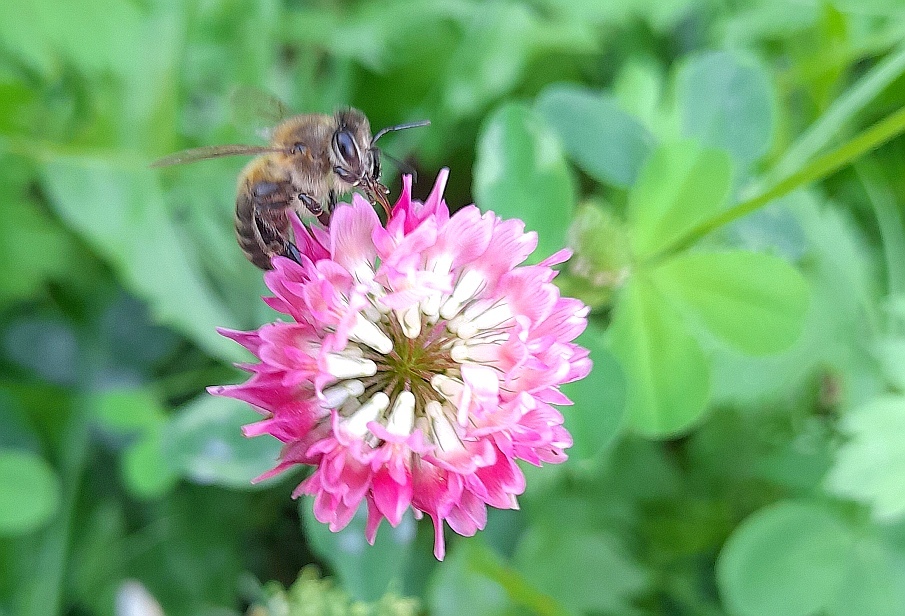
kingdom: Plantae
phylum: Tracheophyta
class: Magnoliopsida
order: Fabales
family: Fabaceae
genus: Trifolium
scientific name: Trifolium hybridum
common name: Alsike clover
